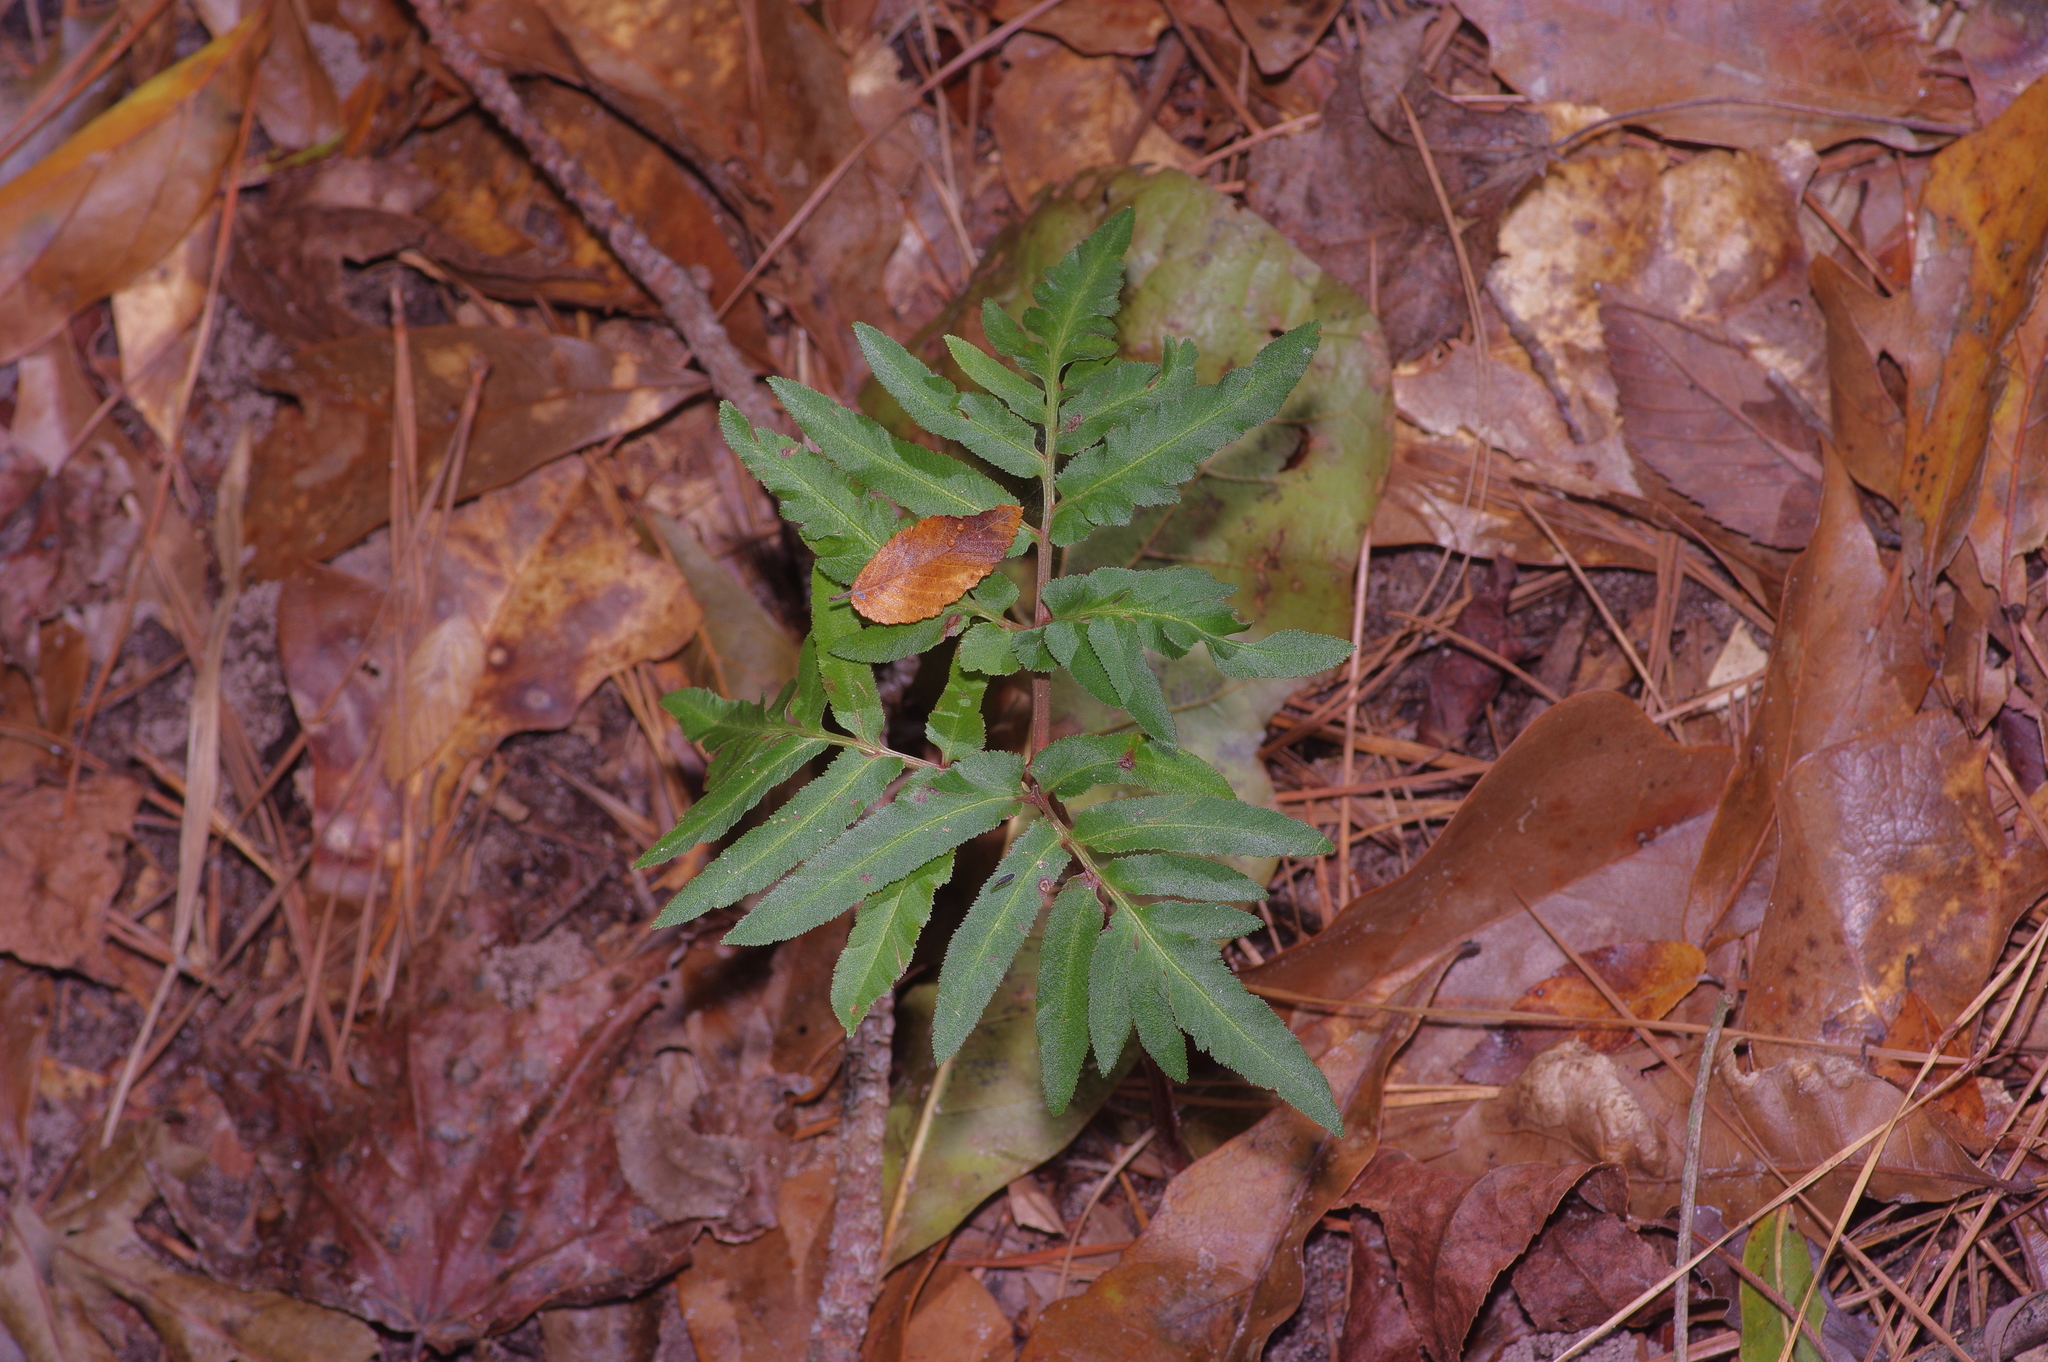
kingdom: Plantae
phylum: Tracheophyta
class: Polypodiopsida
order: Ophioglossales
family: Ophioglossaceae
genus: Sceptridium
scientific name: Sceptridium dissectum
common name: Cut-leaved grapefern
